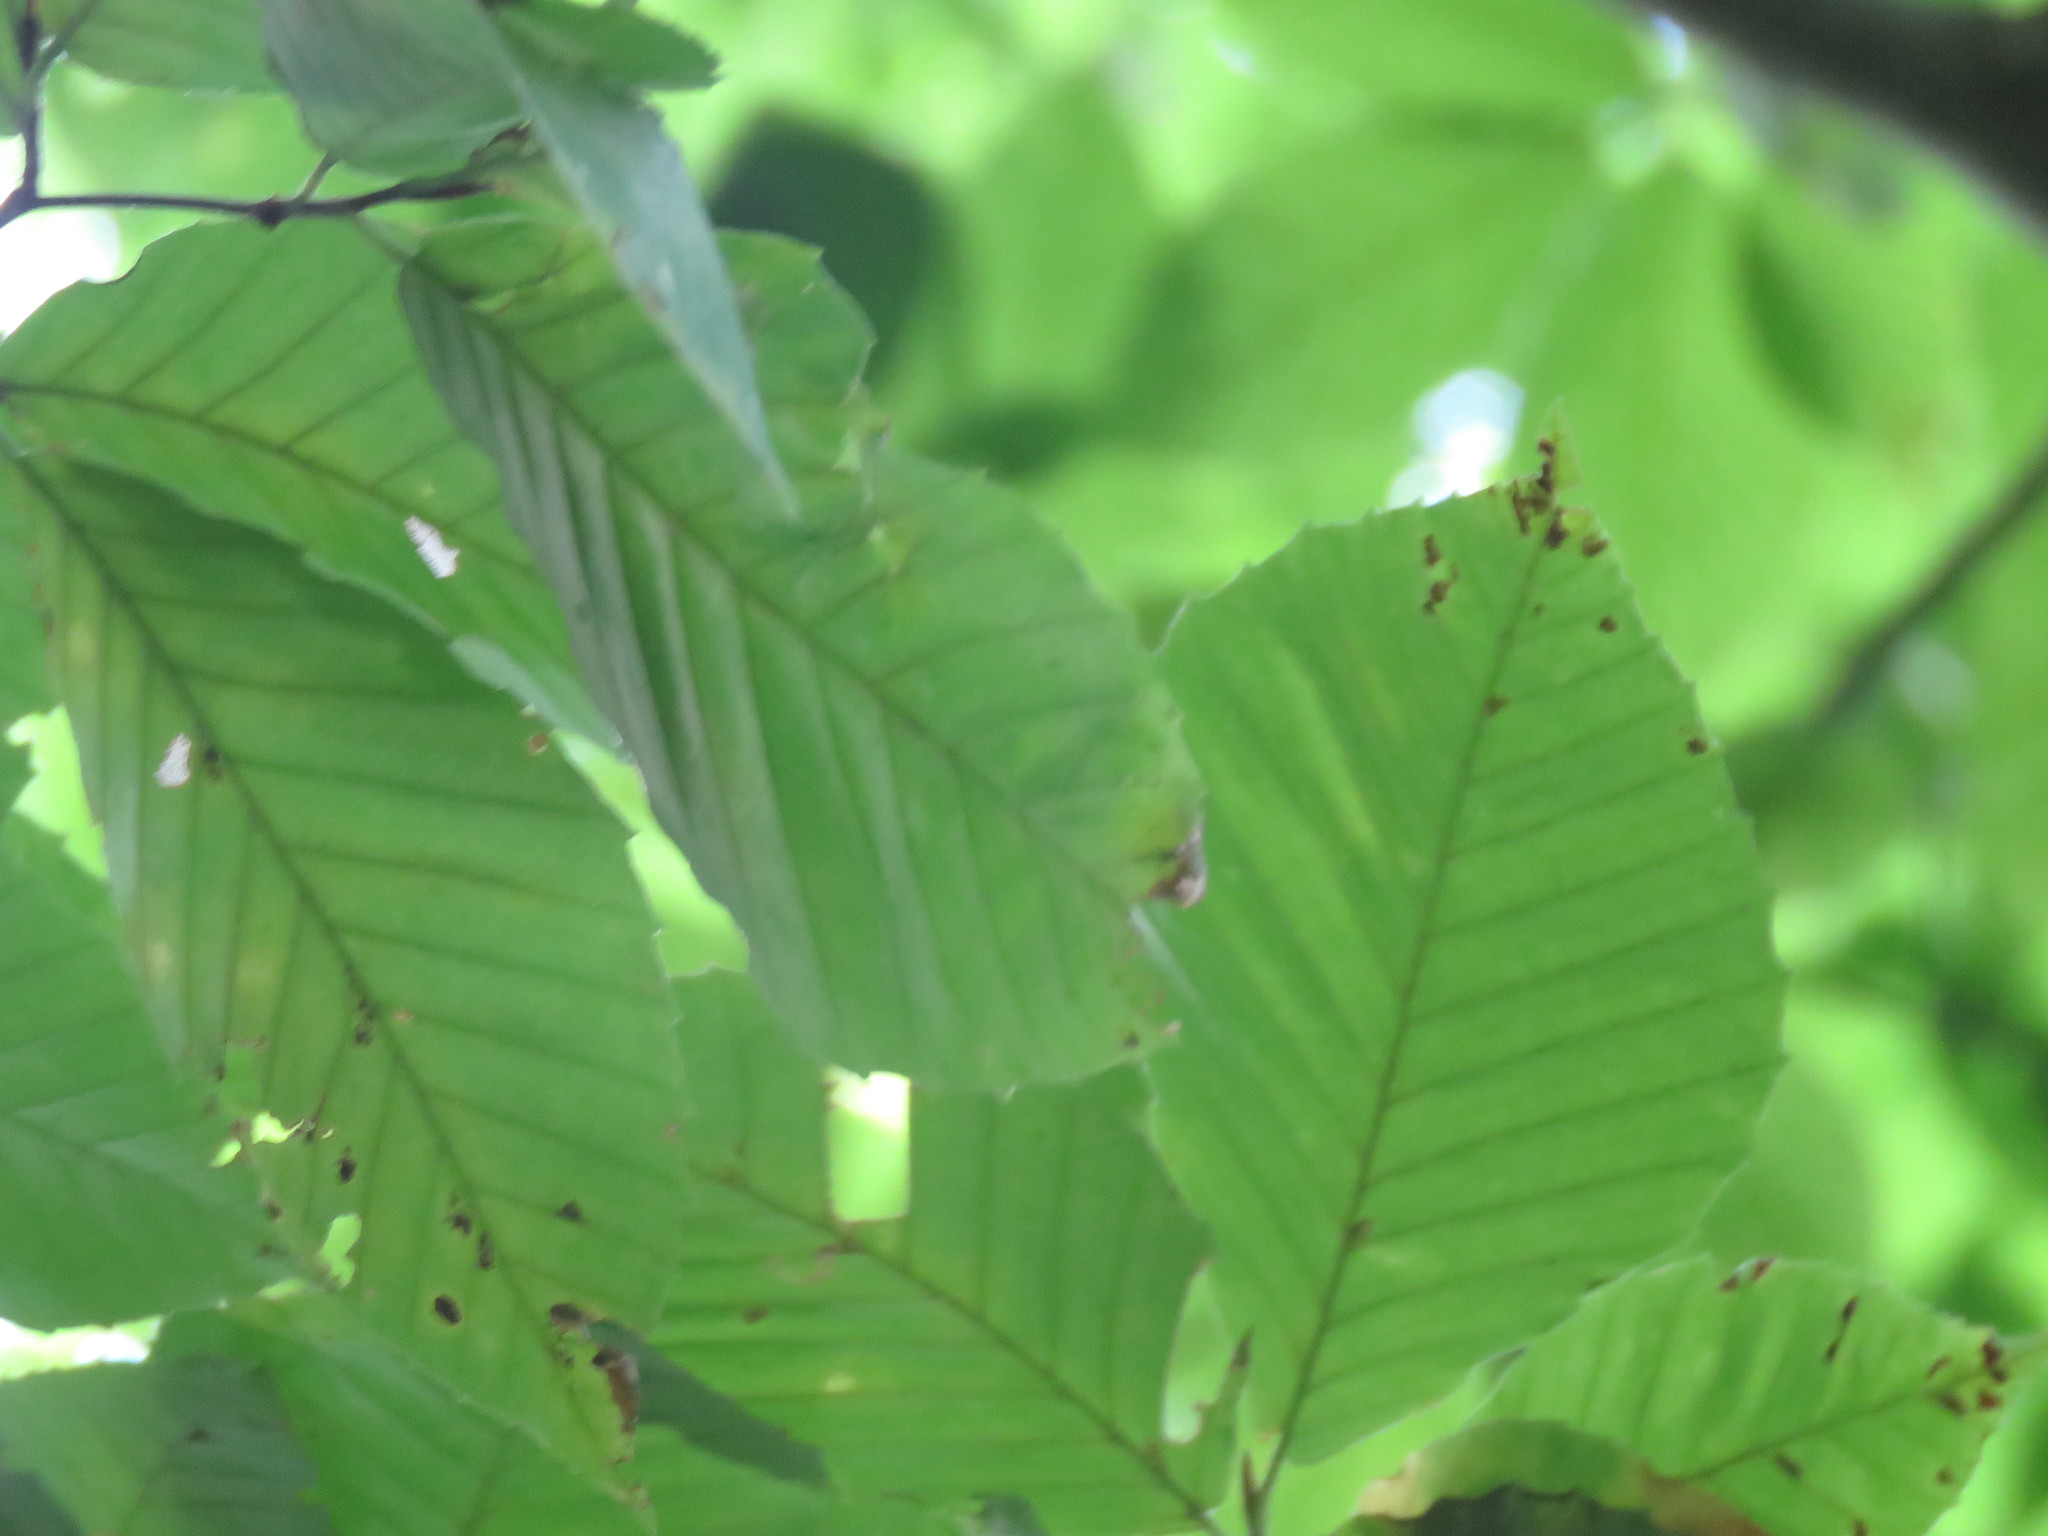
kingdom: Animalia
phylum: Arthropoda
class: Insecta
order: Hemiptera
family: Aphididae
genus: Grylloprociphilus
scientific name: Grylloprociphilus imbricator
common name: Beech blight aphid
